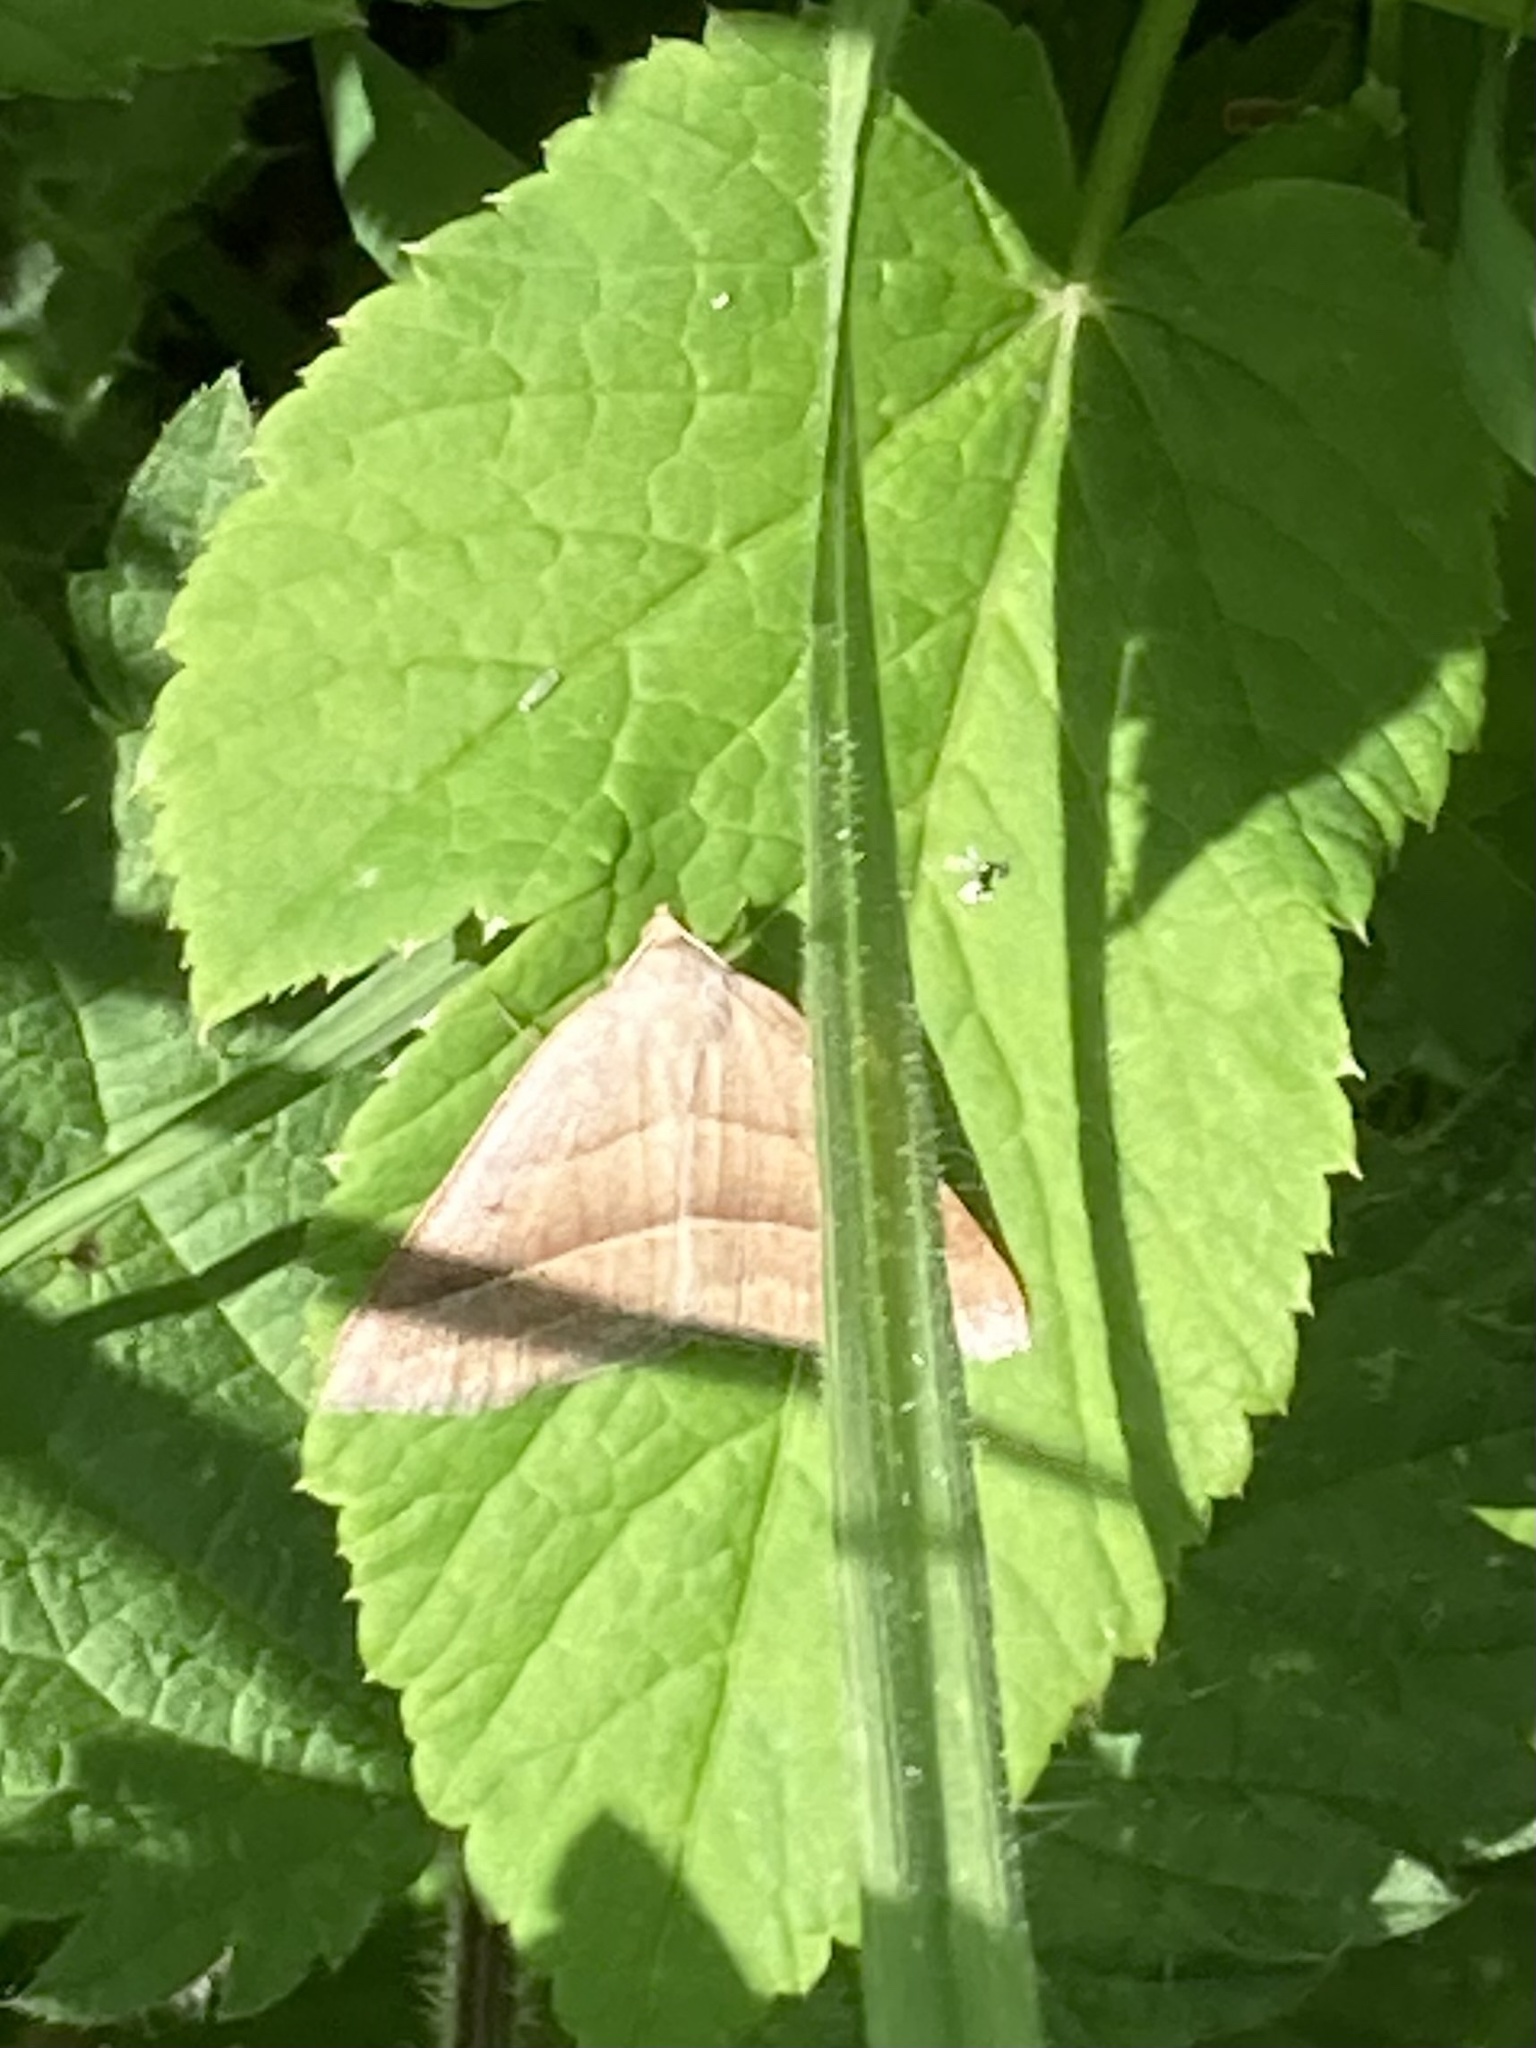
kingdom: Animalia
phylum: Arthropoda
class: Insecta
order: Lepidoptera
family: Pterophoridae
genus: Pterophorus
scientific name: Pterophorus Petrophora chlorosata
